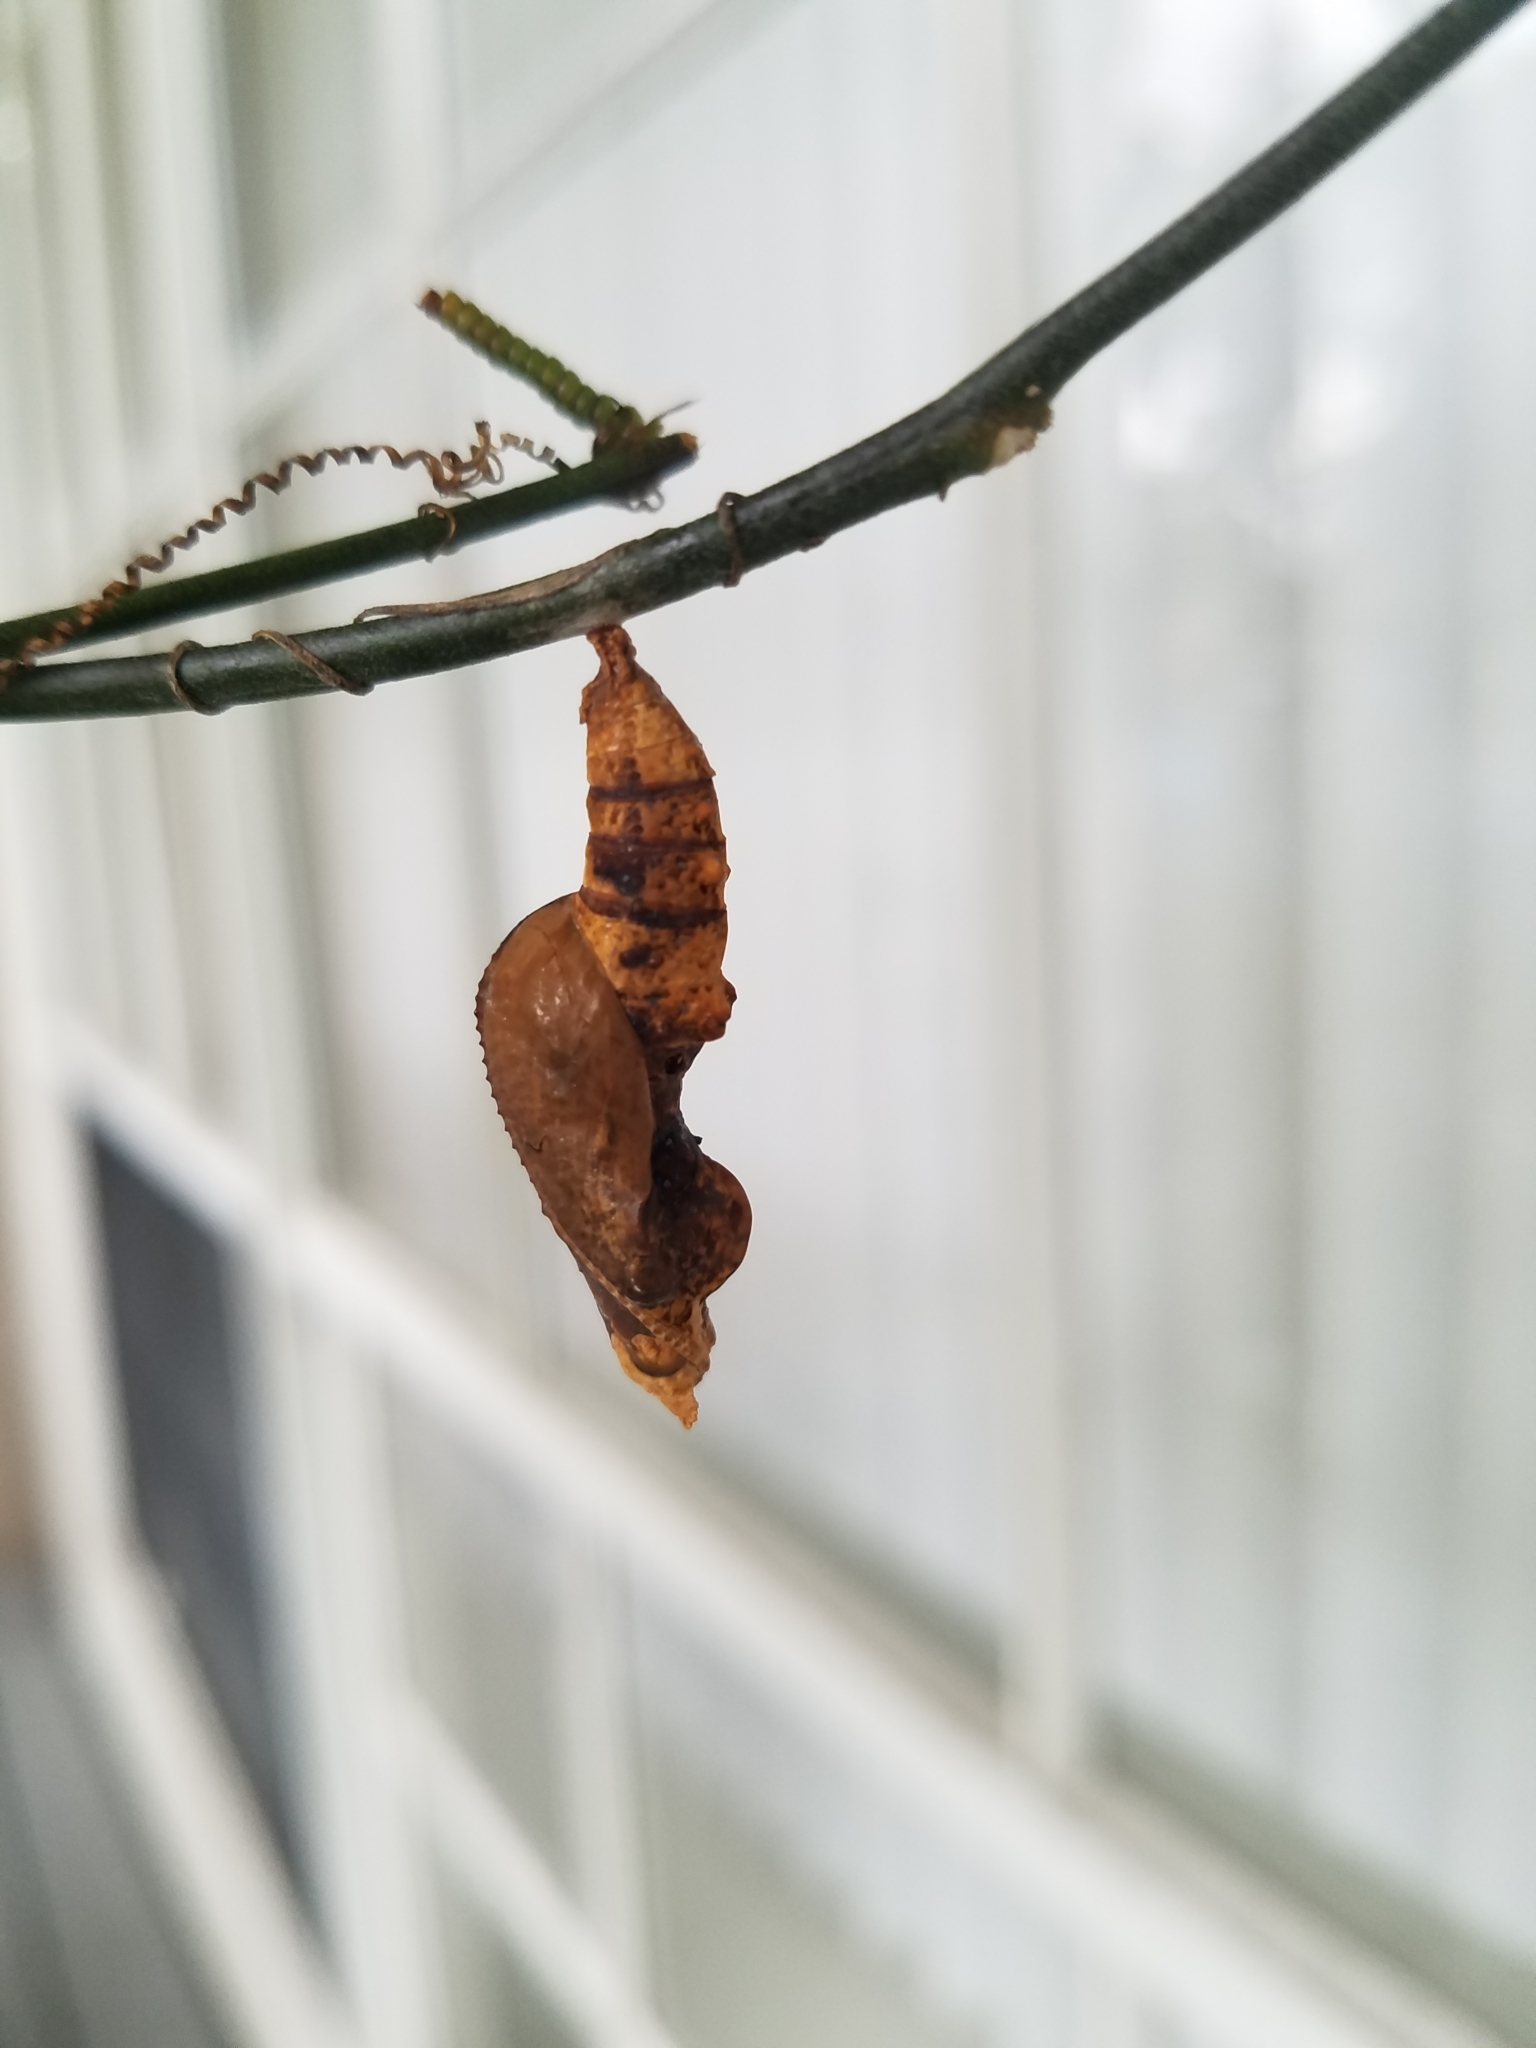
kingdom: Animalia
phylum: Arthropoda
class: Insecta
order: Lepidoptera
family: Nymphalidae
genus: Dione
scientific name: Dione vanillae
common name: Gulf fritillary
